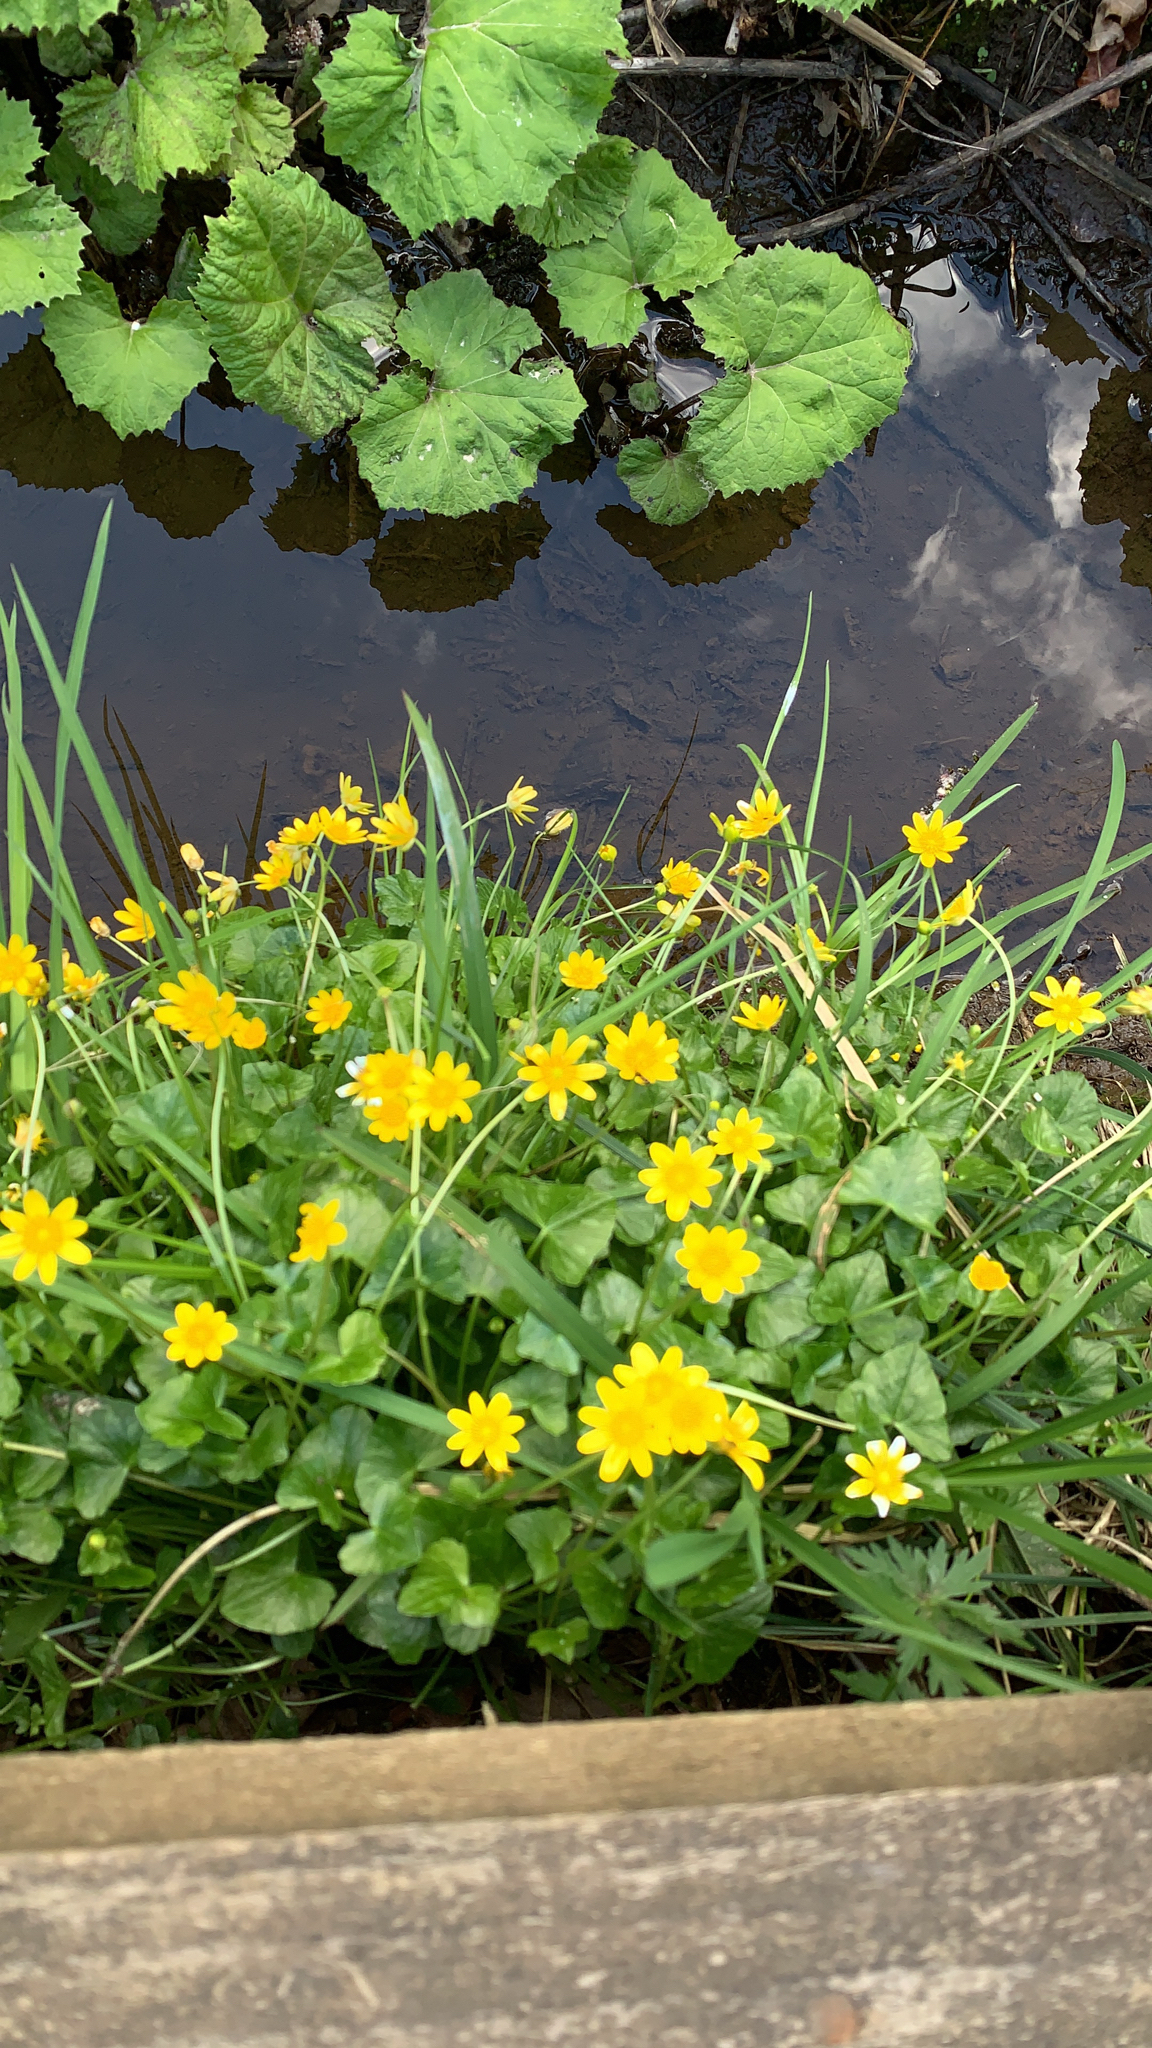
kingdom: Plantae
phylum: Tracheophyta
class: Magnoliopsida
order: Ranunculales
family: Ranunculaceae
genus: Ficaria
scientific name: Ficaria verna
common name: Lesser celandine
